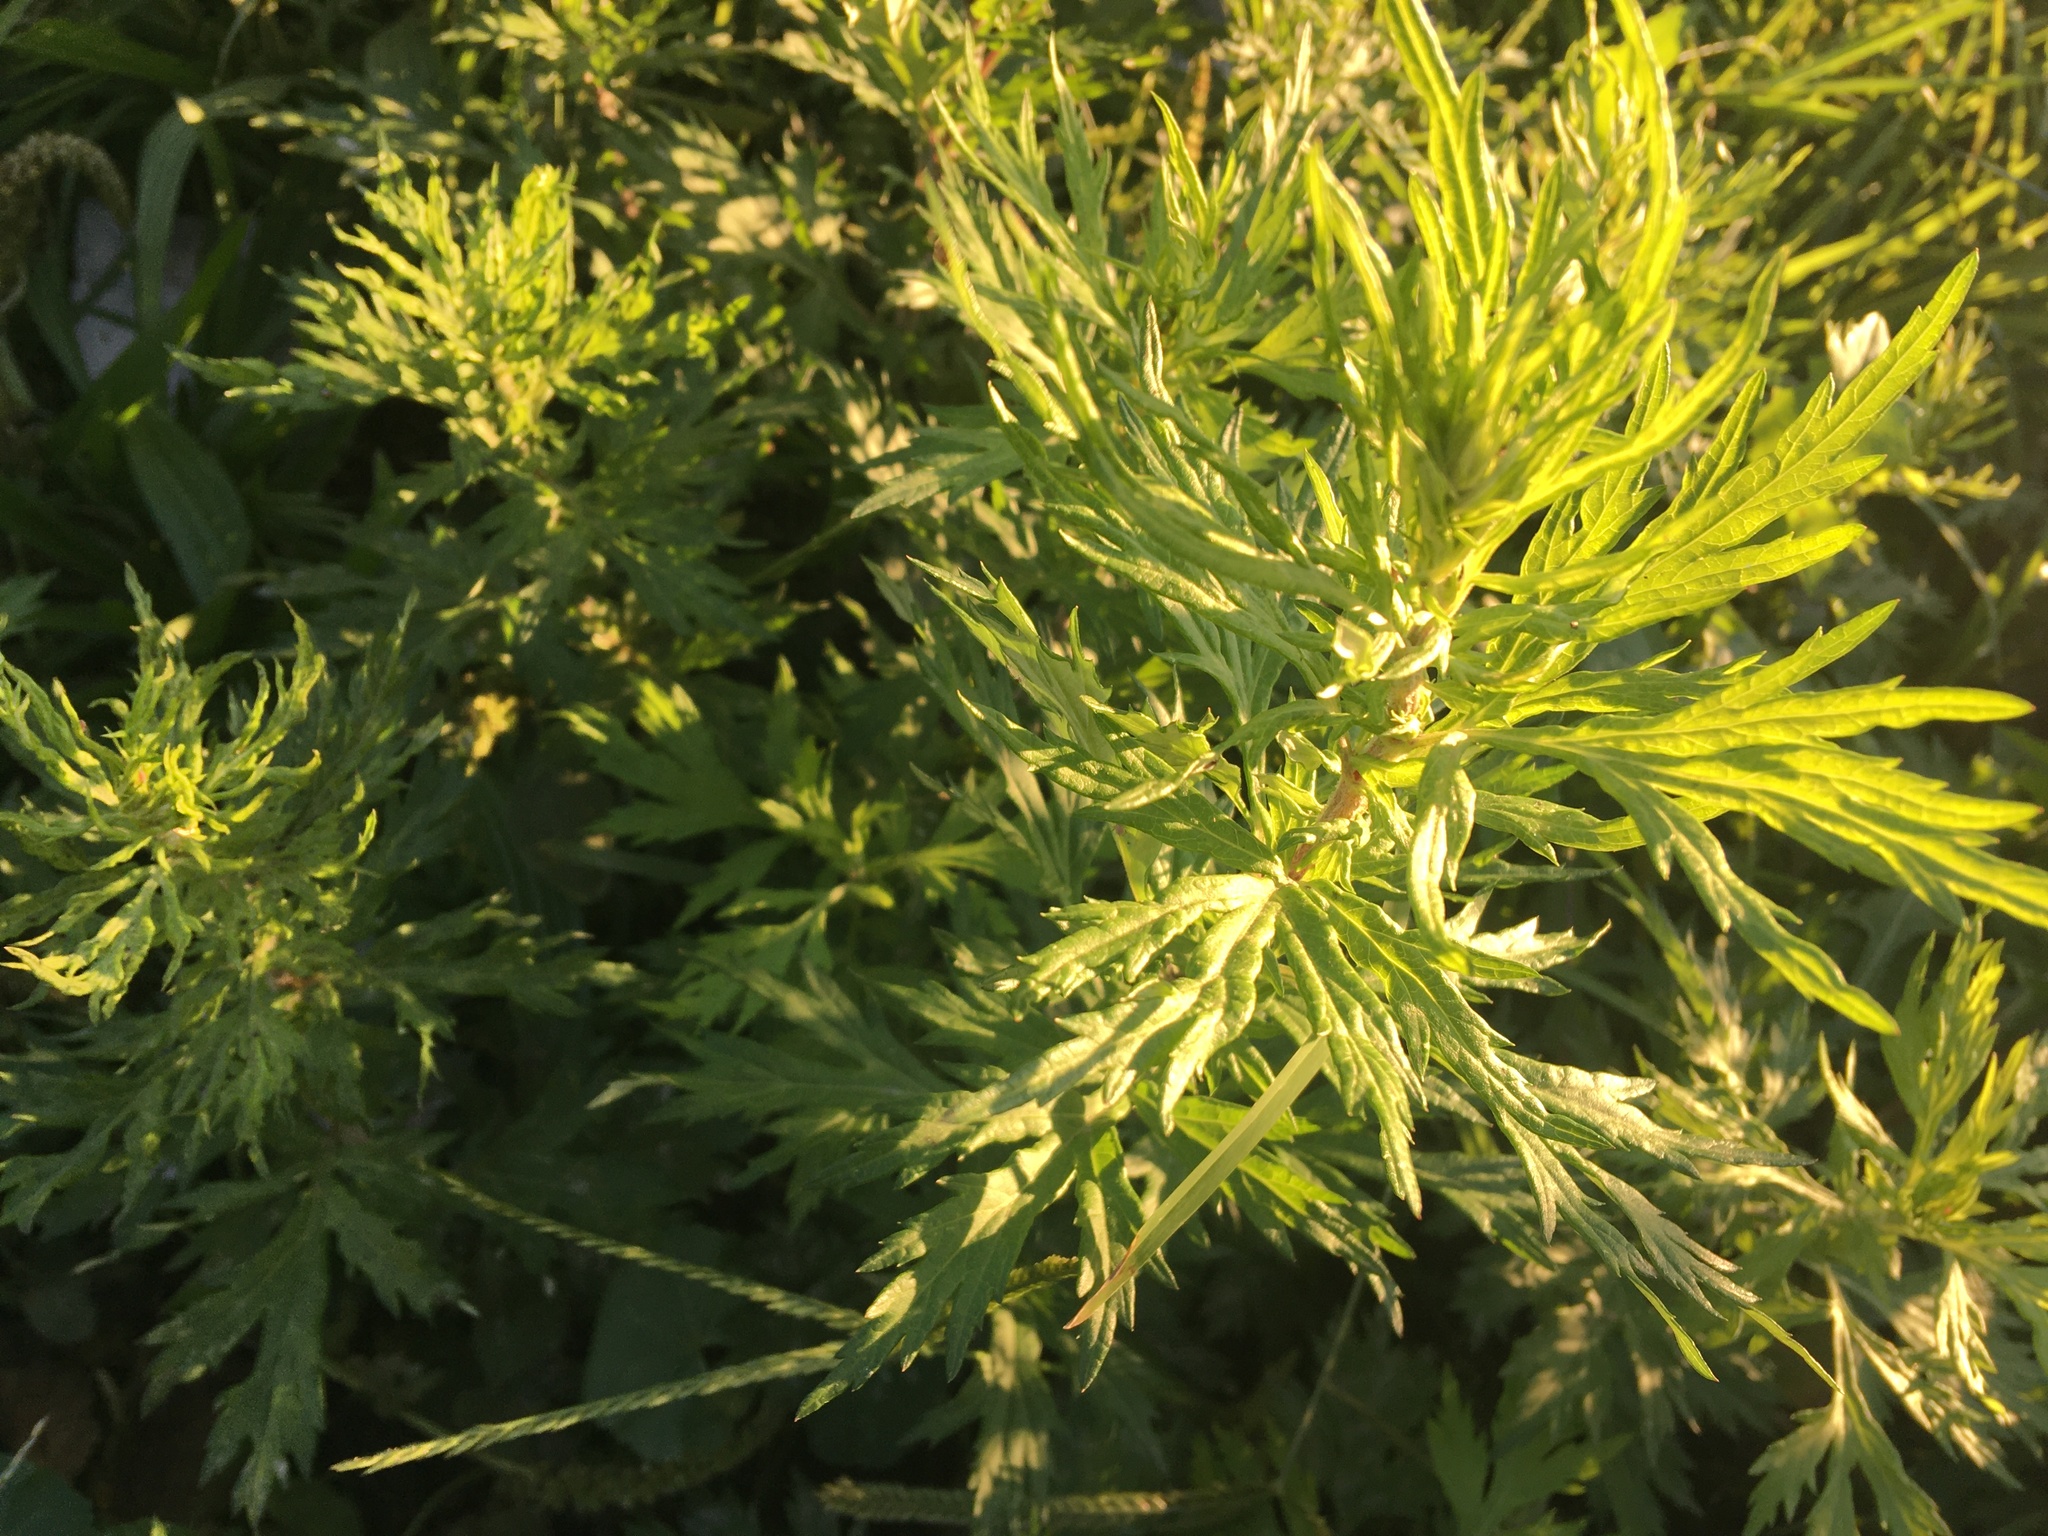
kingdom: Plantae
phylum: Tracheophyta
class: Magnoliopsida
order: Asterales
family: Asteraceae
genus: Artemisia
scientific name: Artemisia vulgaris
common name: Mugwort
